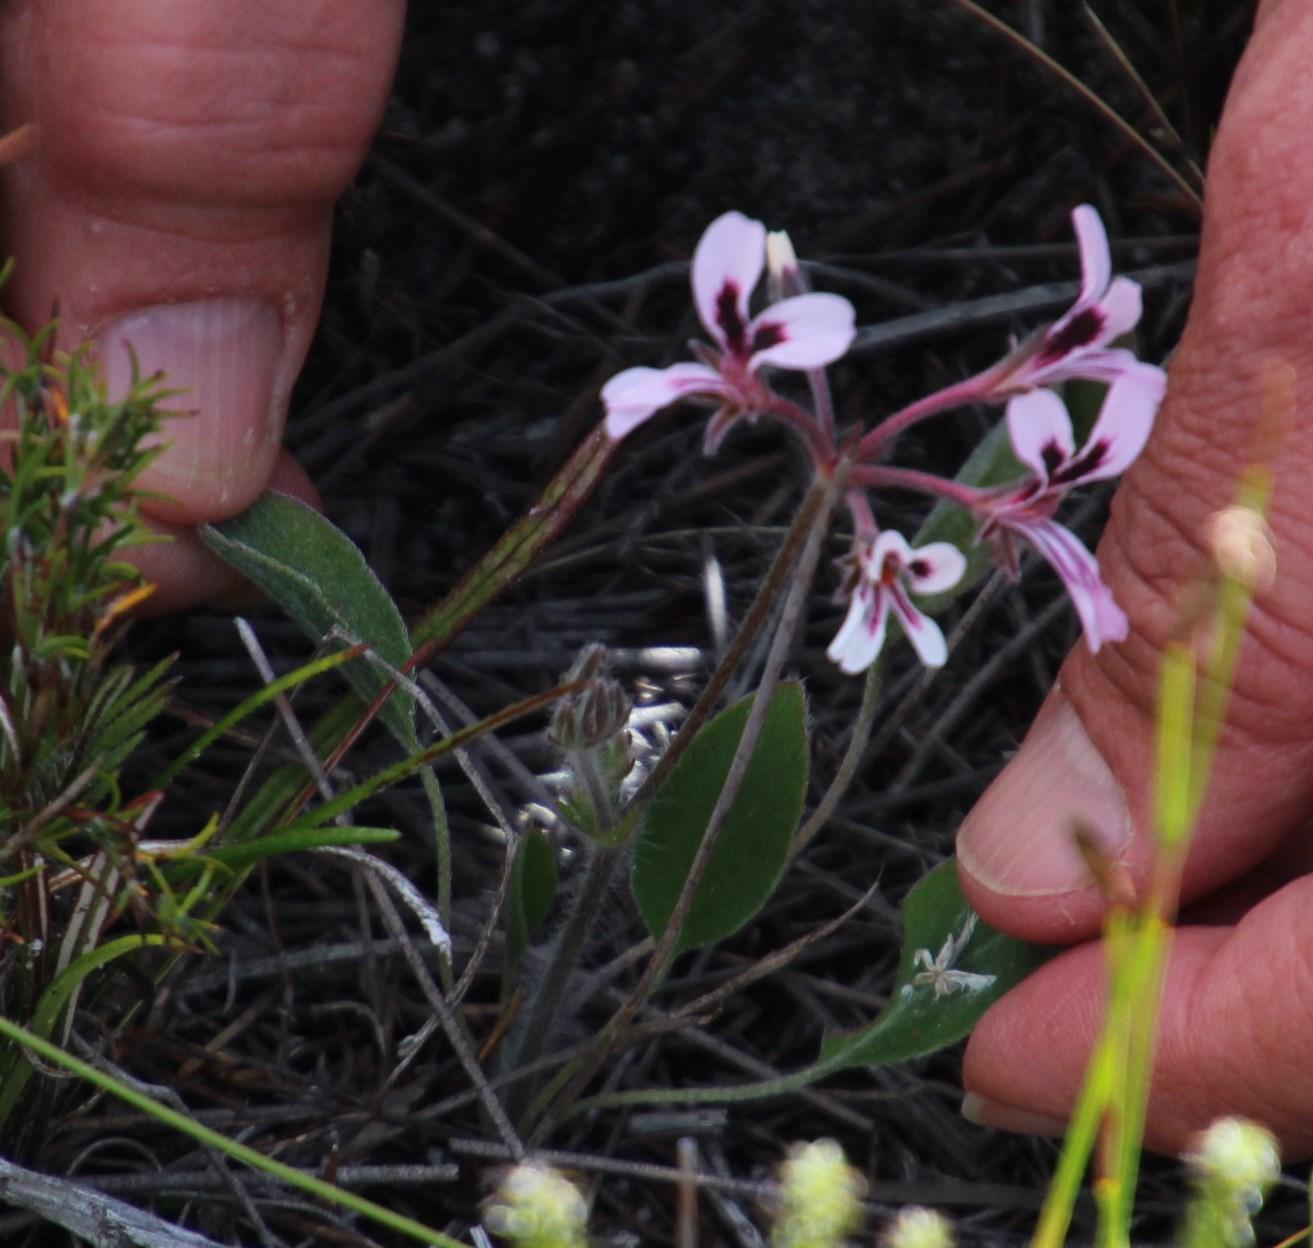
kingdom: Plantae
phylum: Tracheophyta
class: Magnoliopsida
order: Geraniales
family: Geraniaceae
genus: Pelargonium
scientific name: Pelargonium psammophilum
